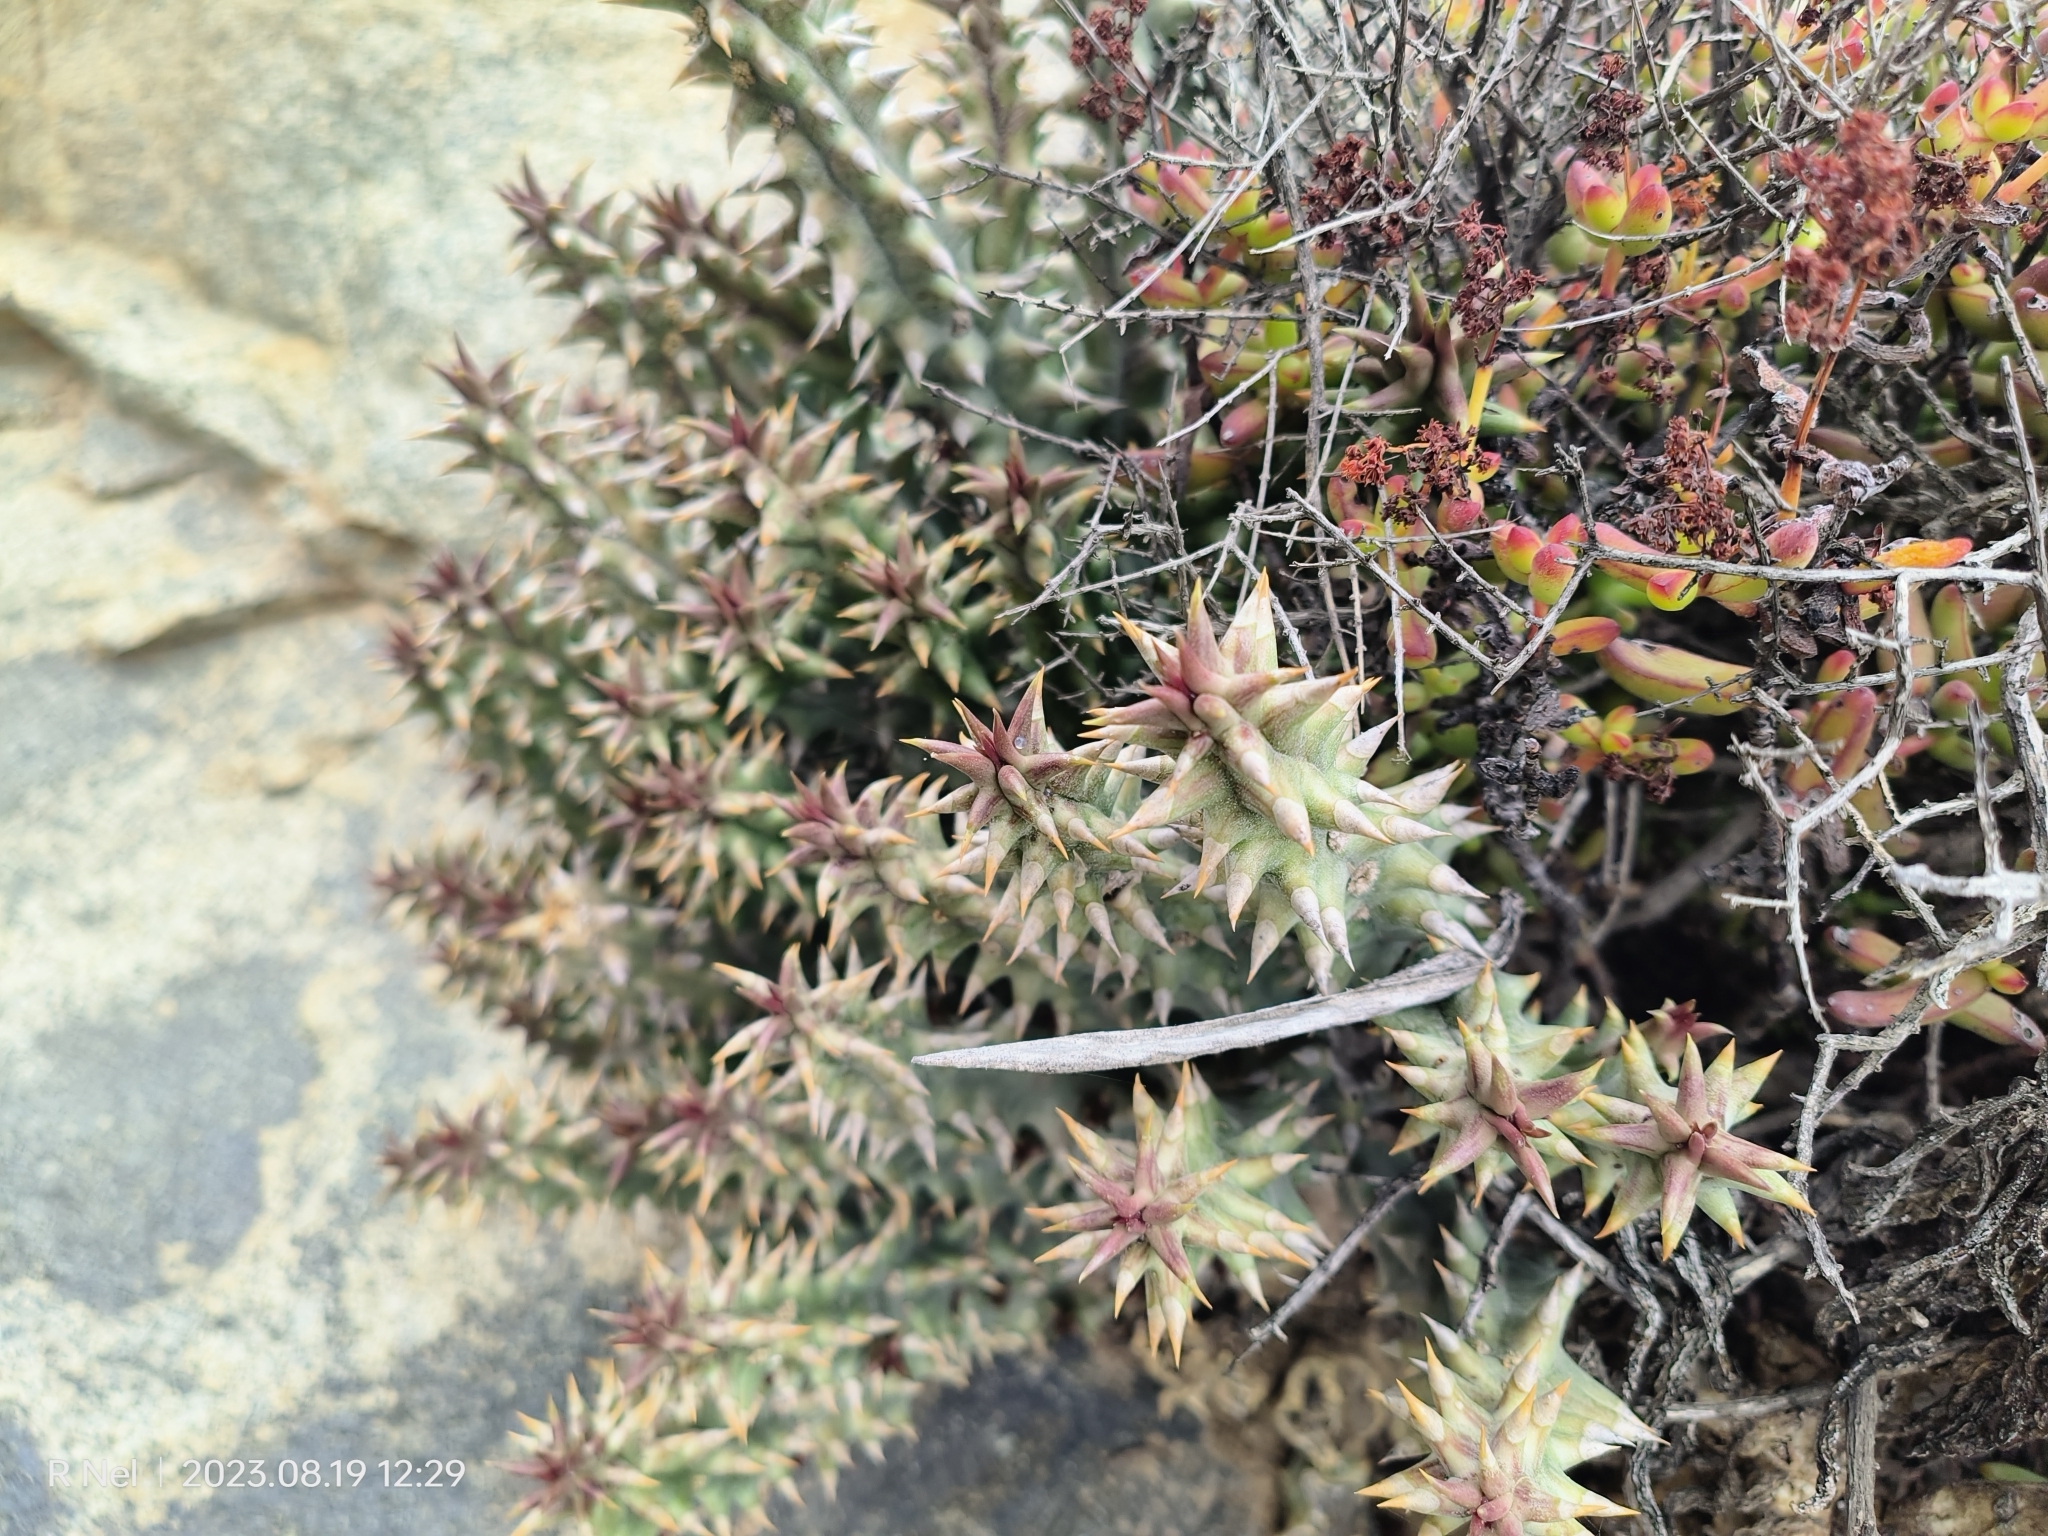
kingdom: Plantae
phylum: Tracheophyta
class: Magnoliopsida
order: Gentianales
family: Apocynaceae
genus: Ceropegia
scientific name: Ceropegia mammillaris
